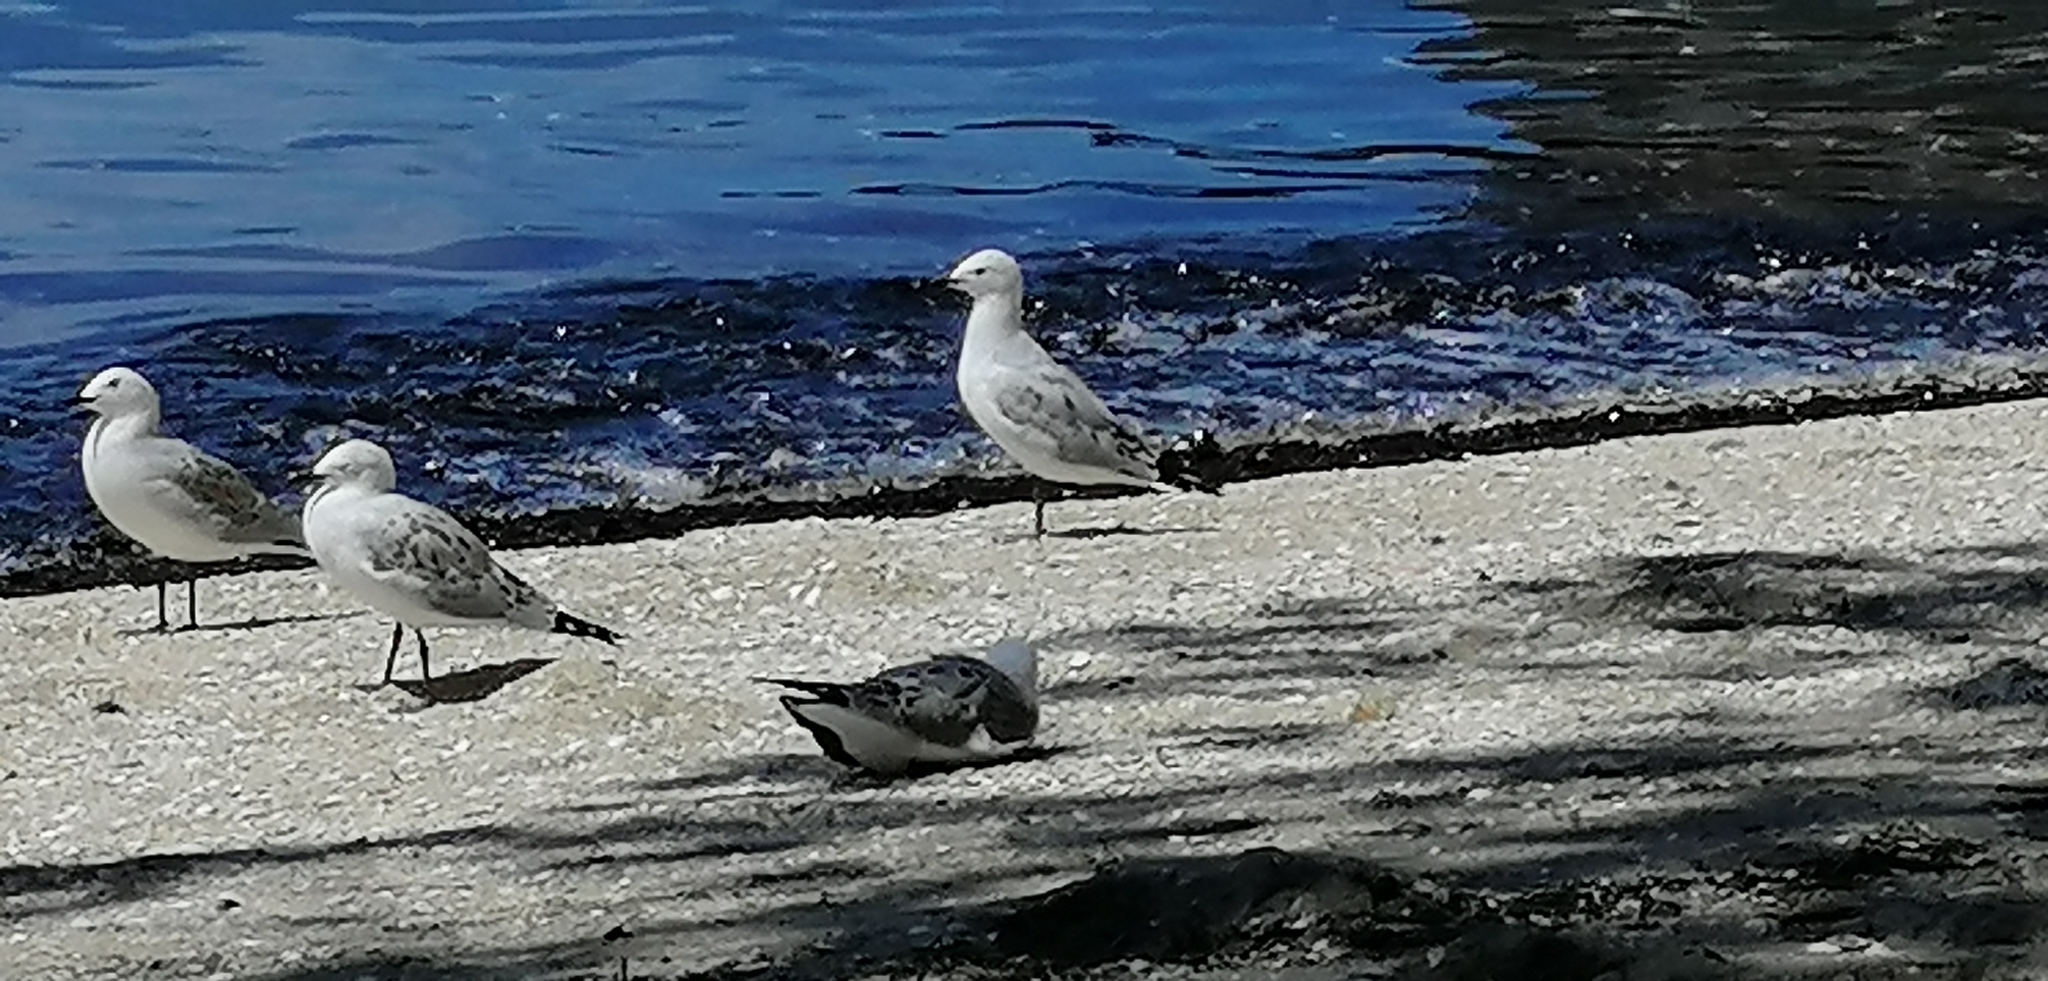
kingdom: Animalia
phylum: Chordata
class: Aves
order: Charadriiformes
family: Laridae
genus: Chroicocephalus
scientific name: Chroicocephalus novaehollandiae
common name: Silver gull
